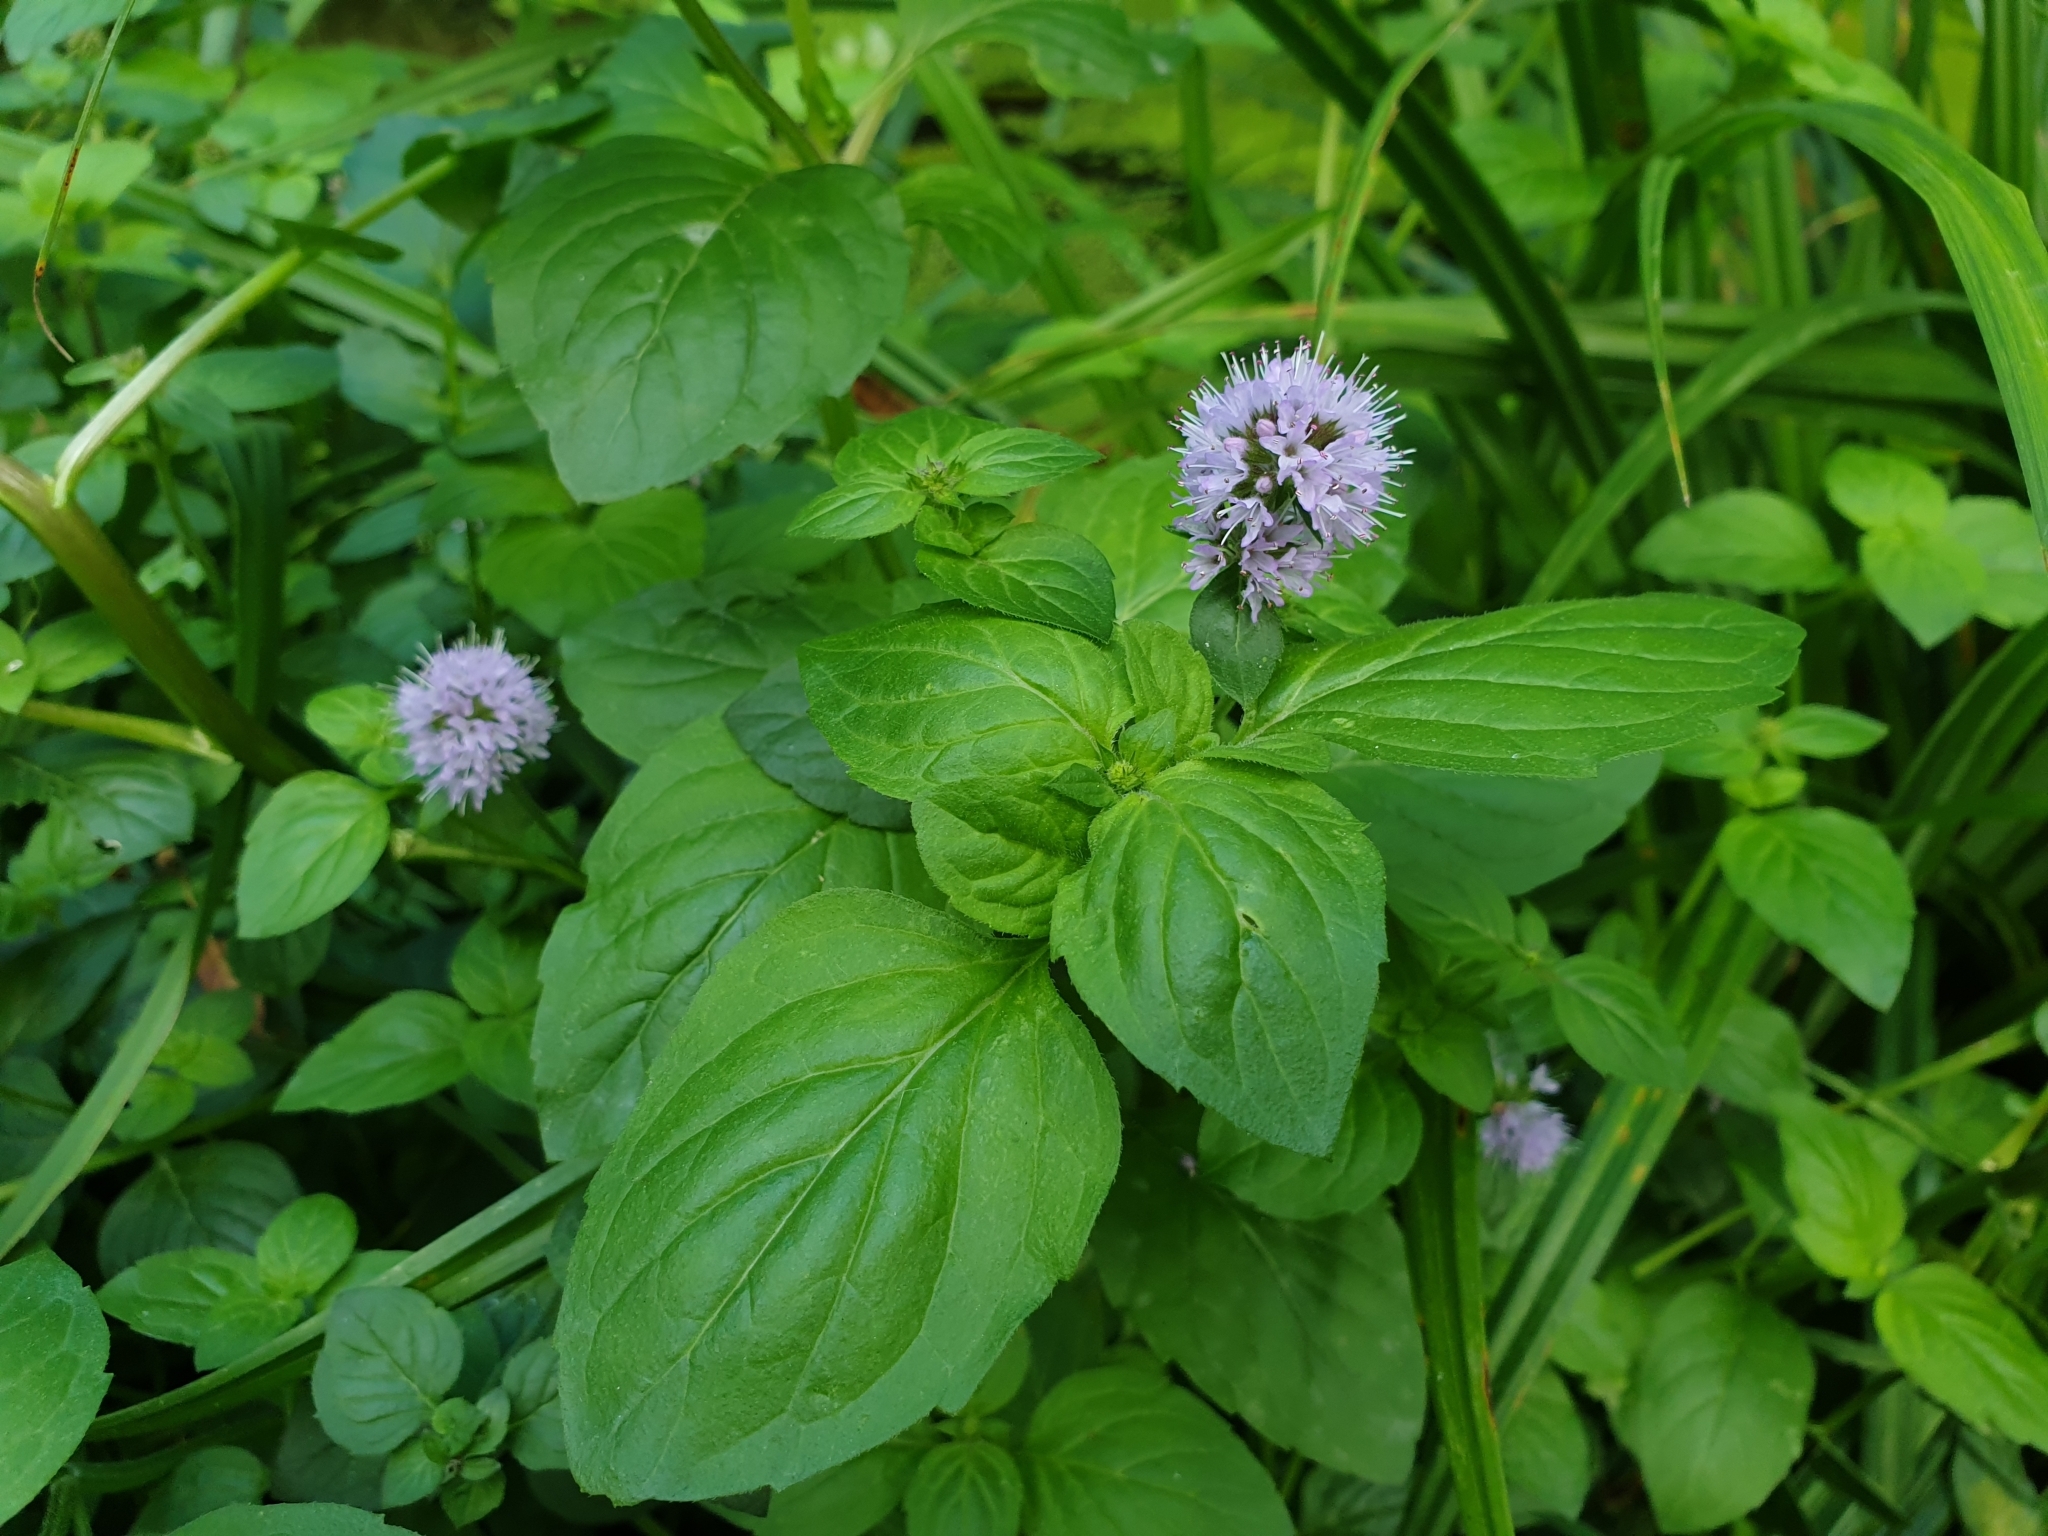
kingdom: Plantae
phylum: Tracheophyta
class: Magnoliopsida
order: Lamiales
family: Lamiaceae
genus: Mentha
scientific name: Mentha aquatica
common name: Water mint
